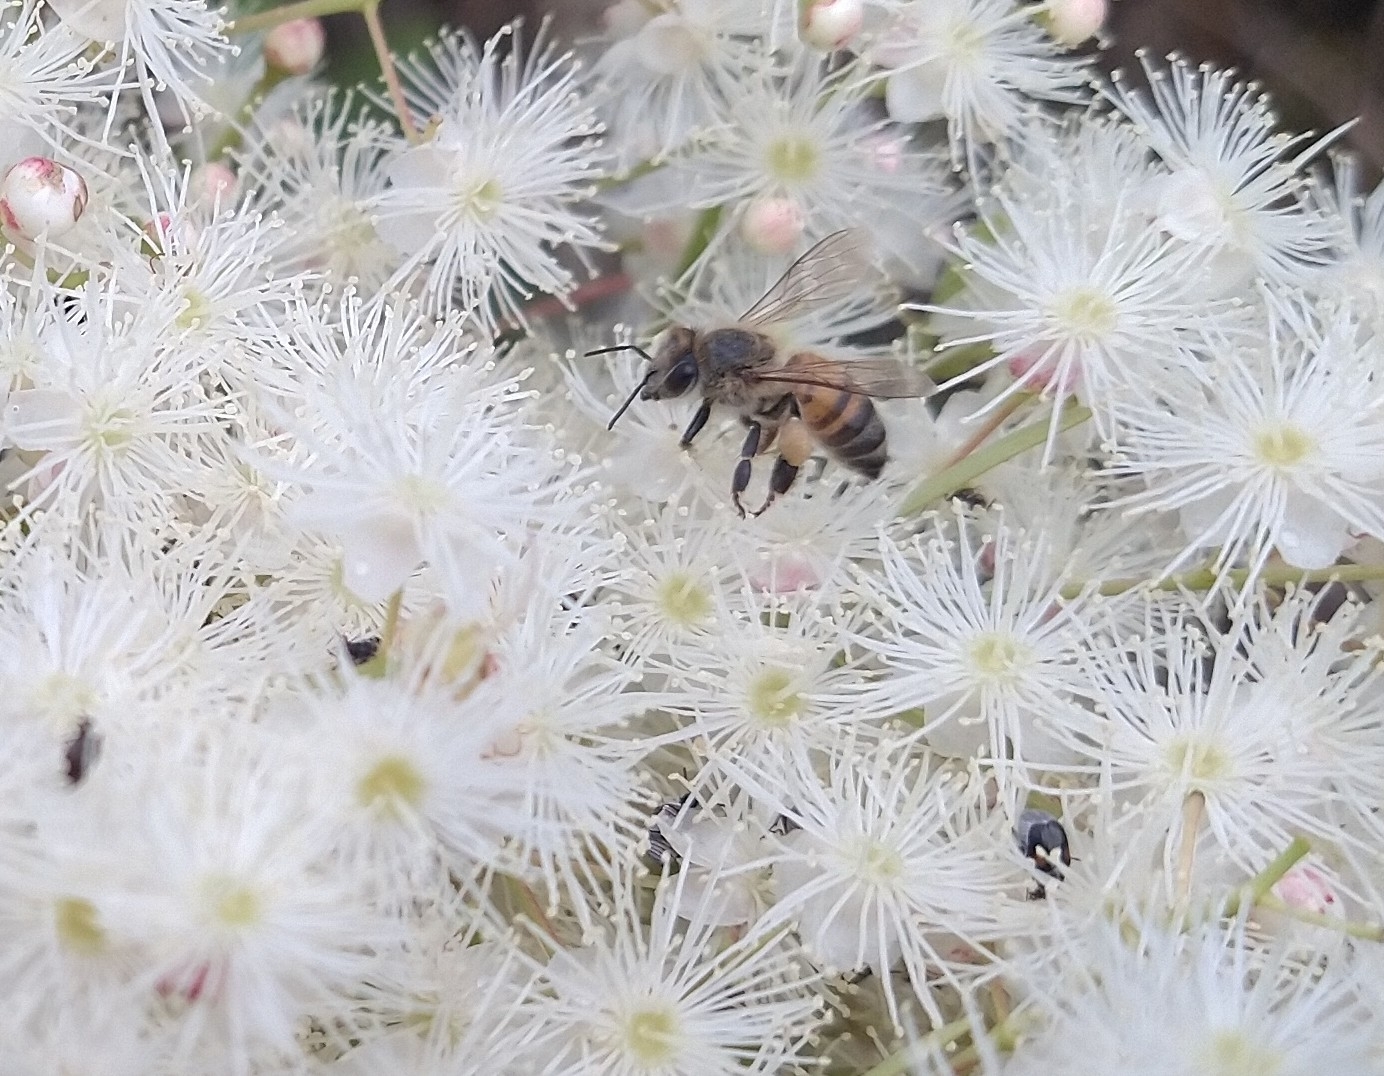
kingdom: Animalia
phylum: Arthropoda
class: Insecta
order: Hymenoptera
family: Apidae
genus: Apis
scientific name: Apis mellifera
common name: Honey bee
